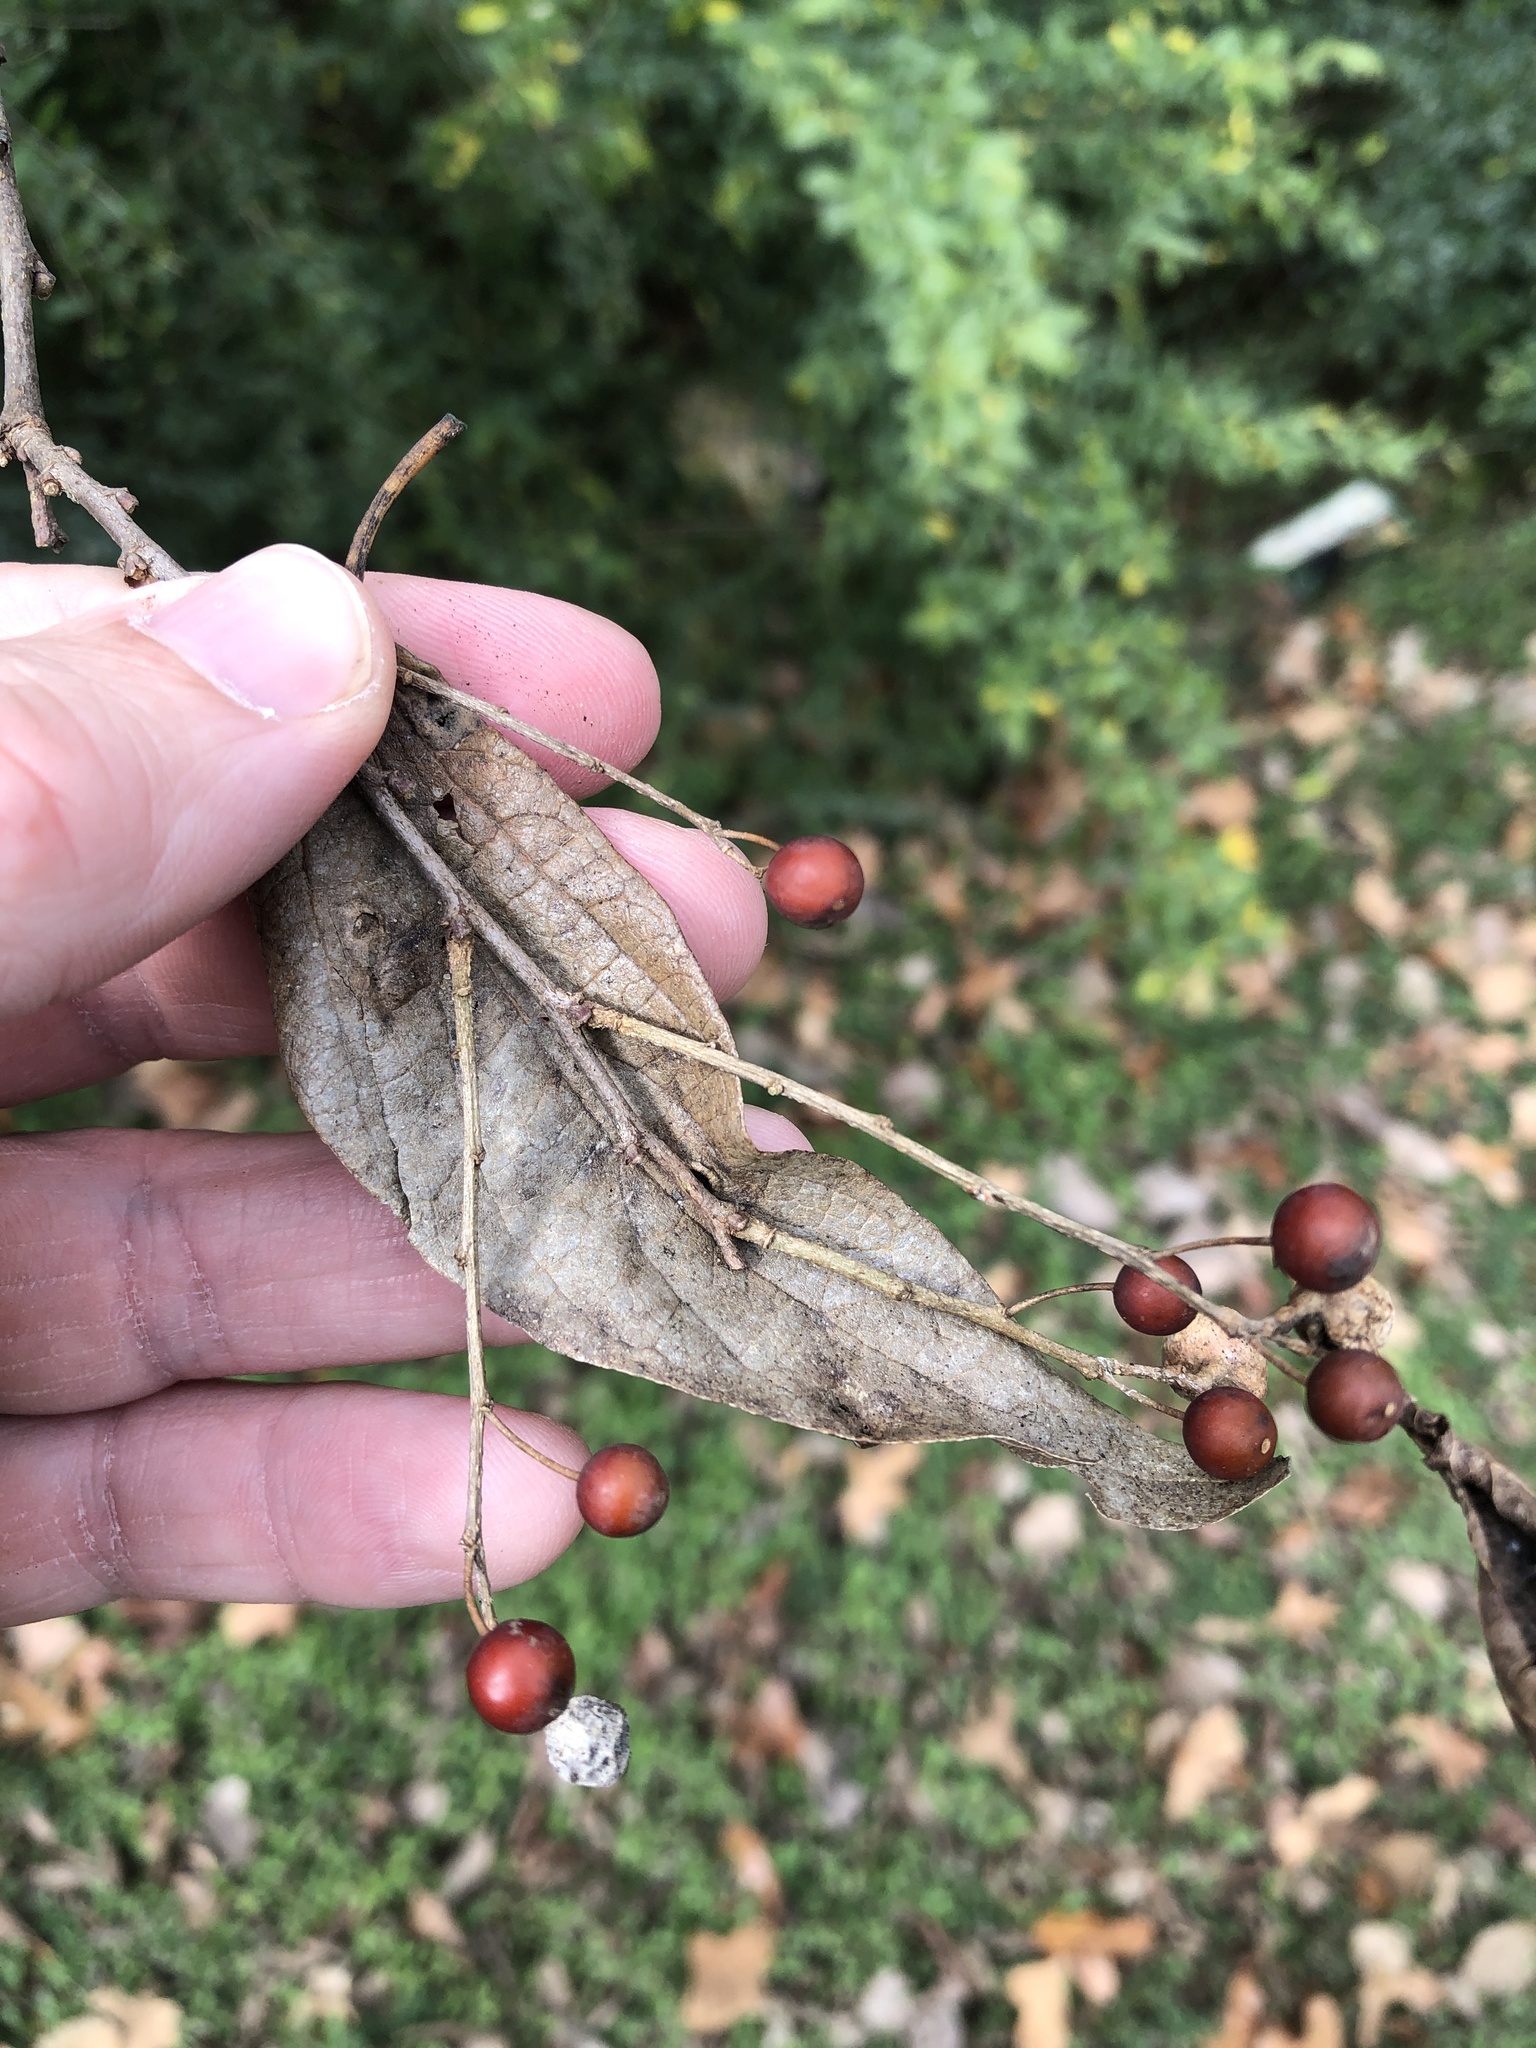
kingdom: Plantae
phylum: Tracheophyta
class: Magnoliopsida
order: Rosales
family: Cannabaceae
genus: Celtis
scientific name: Celtis laevigata
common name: Sugarberry
